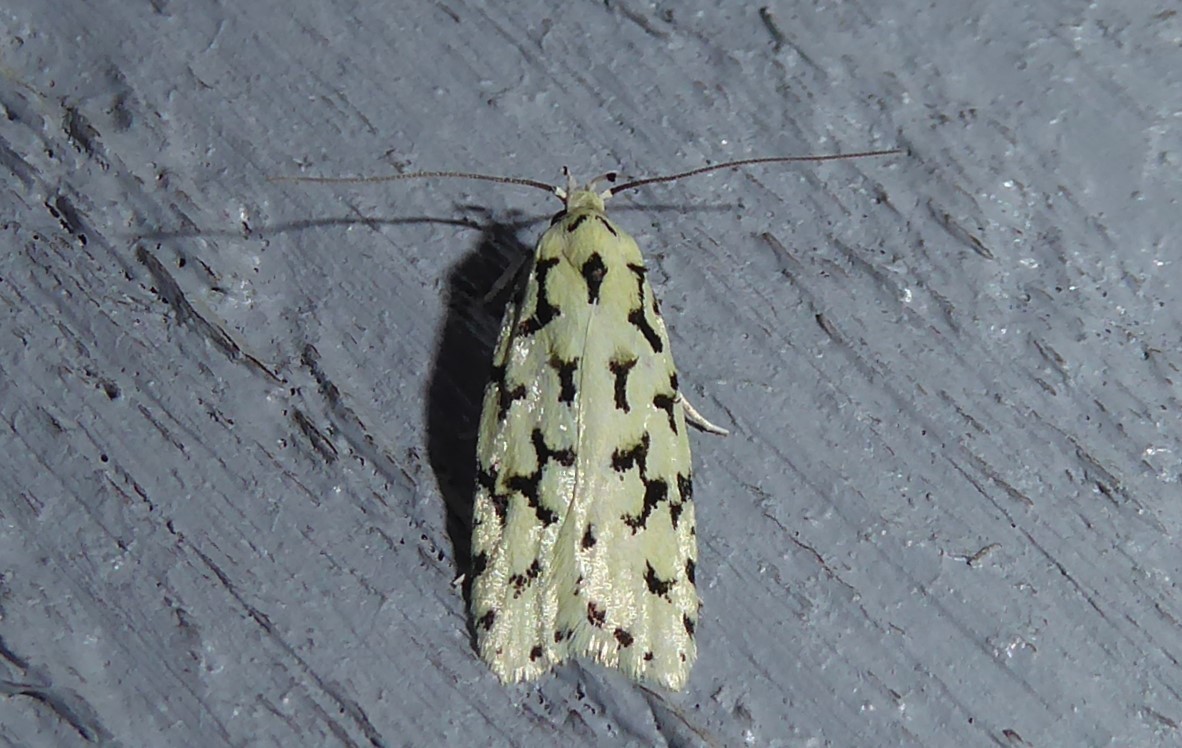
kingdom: Animalia
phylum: Arthropoda
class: Insecta
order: Lepidoptera
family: Oecophoridae
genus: Izatha
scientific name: Izatha huttoni
